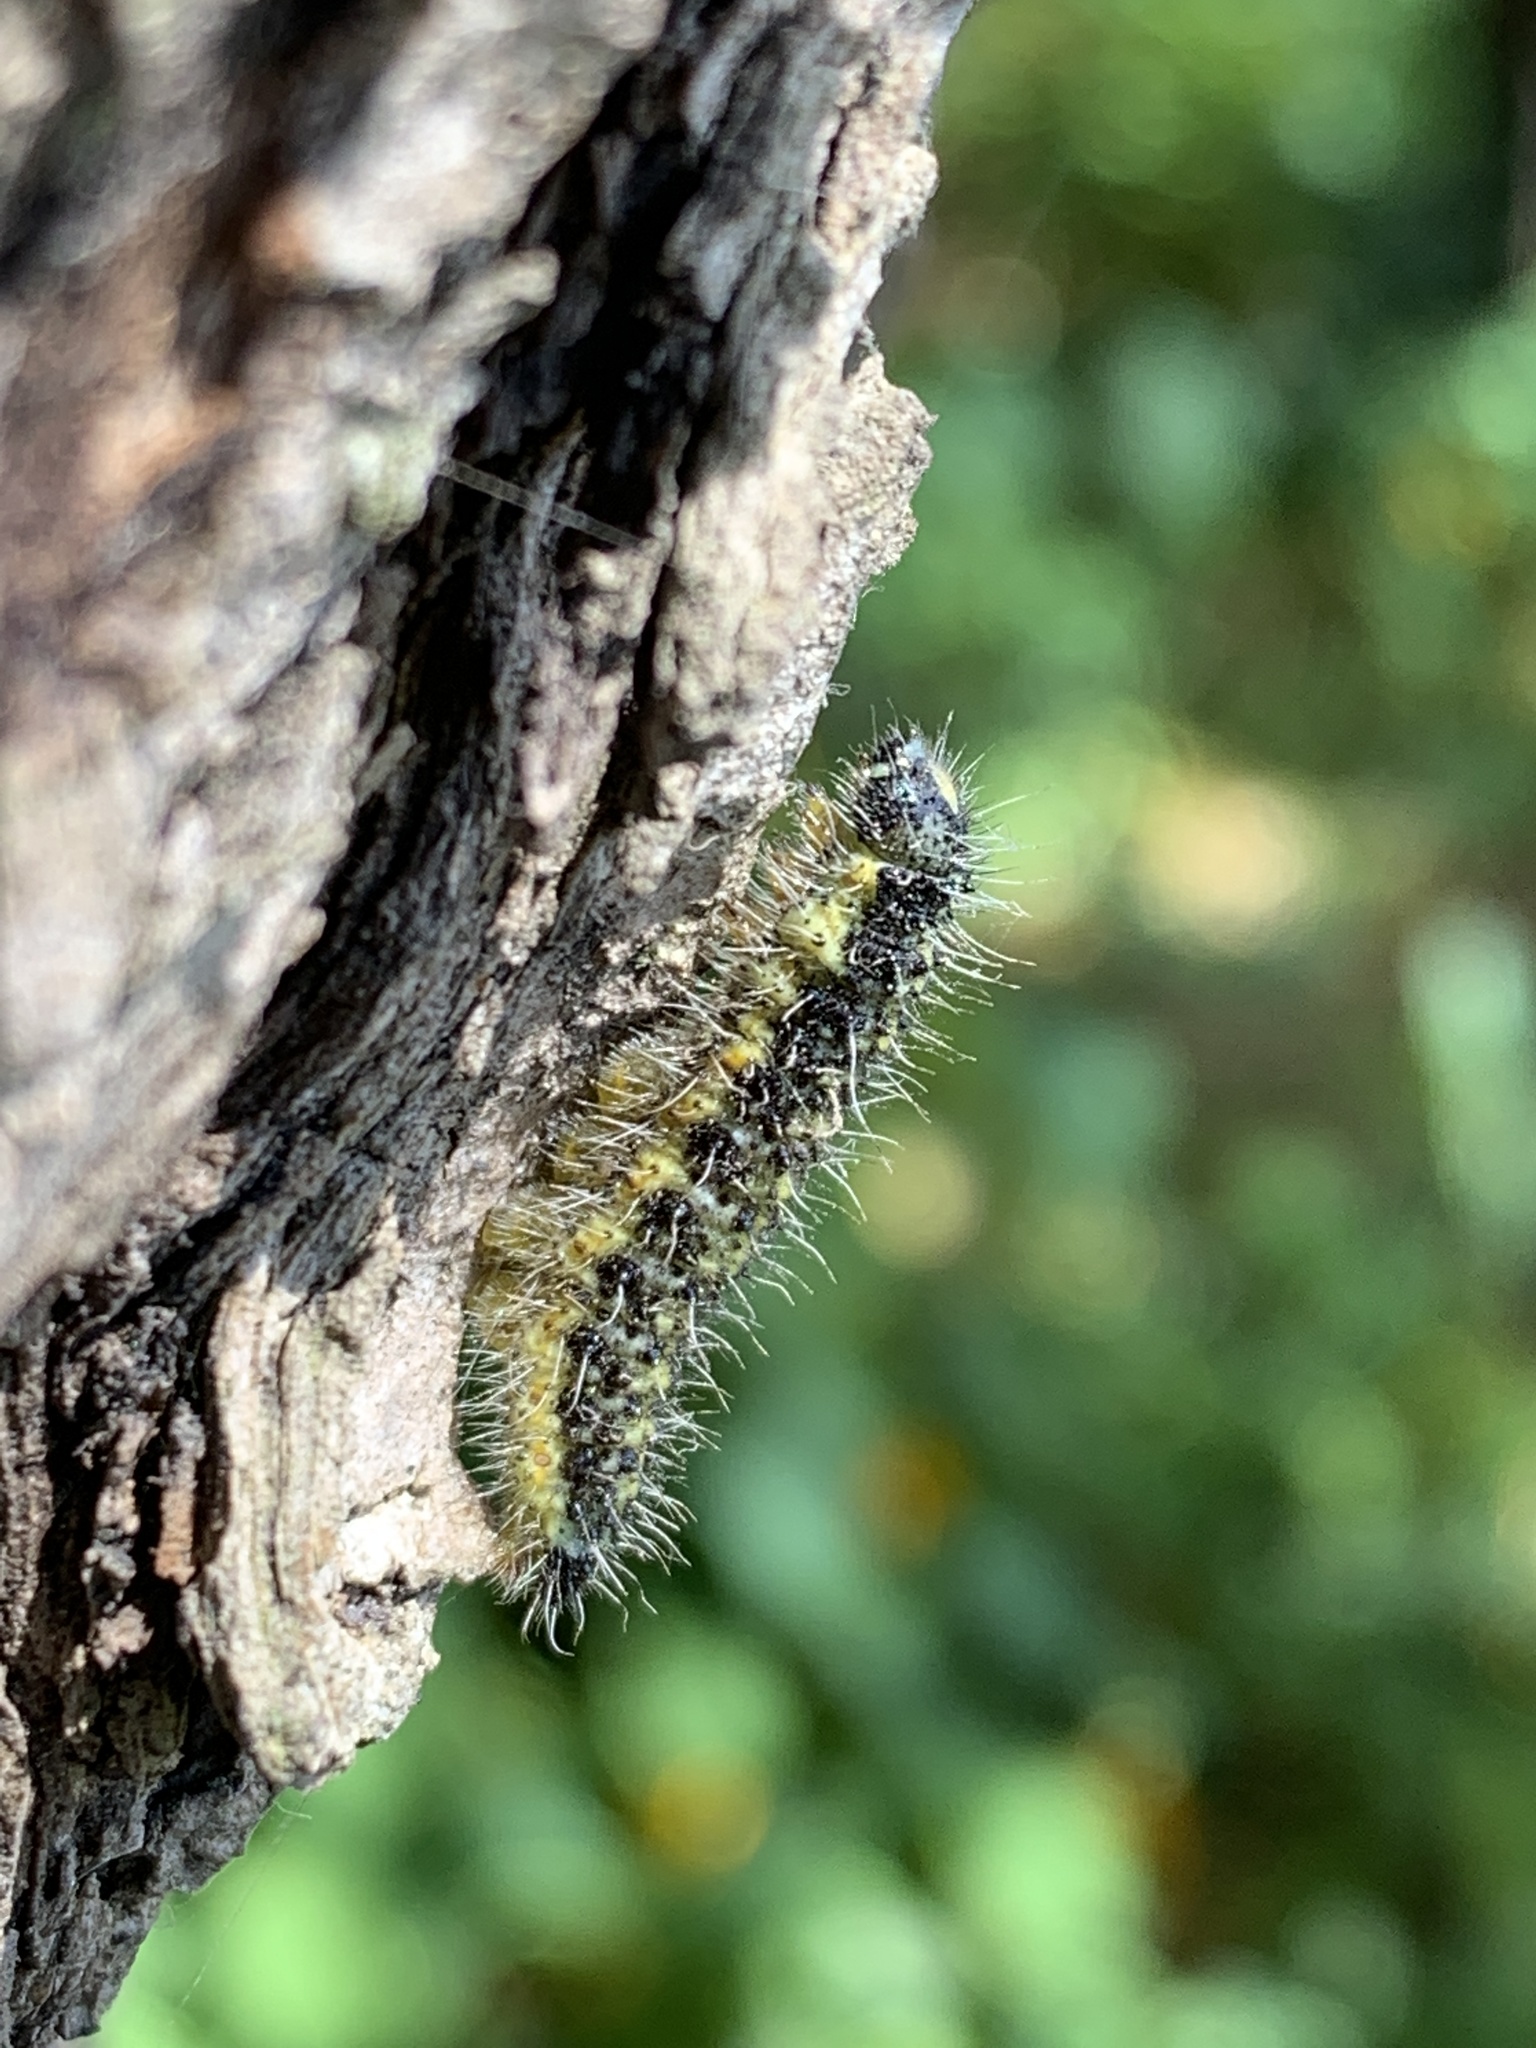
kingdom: Animalia
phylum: Arthropoda
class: Insecta
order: Lepidoptera
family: Pieridae
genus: Pieris
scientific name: Pieris brassicae
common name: Large white
